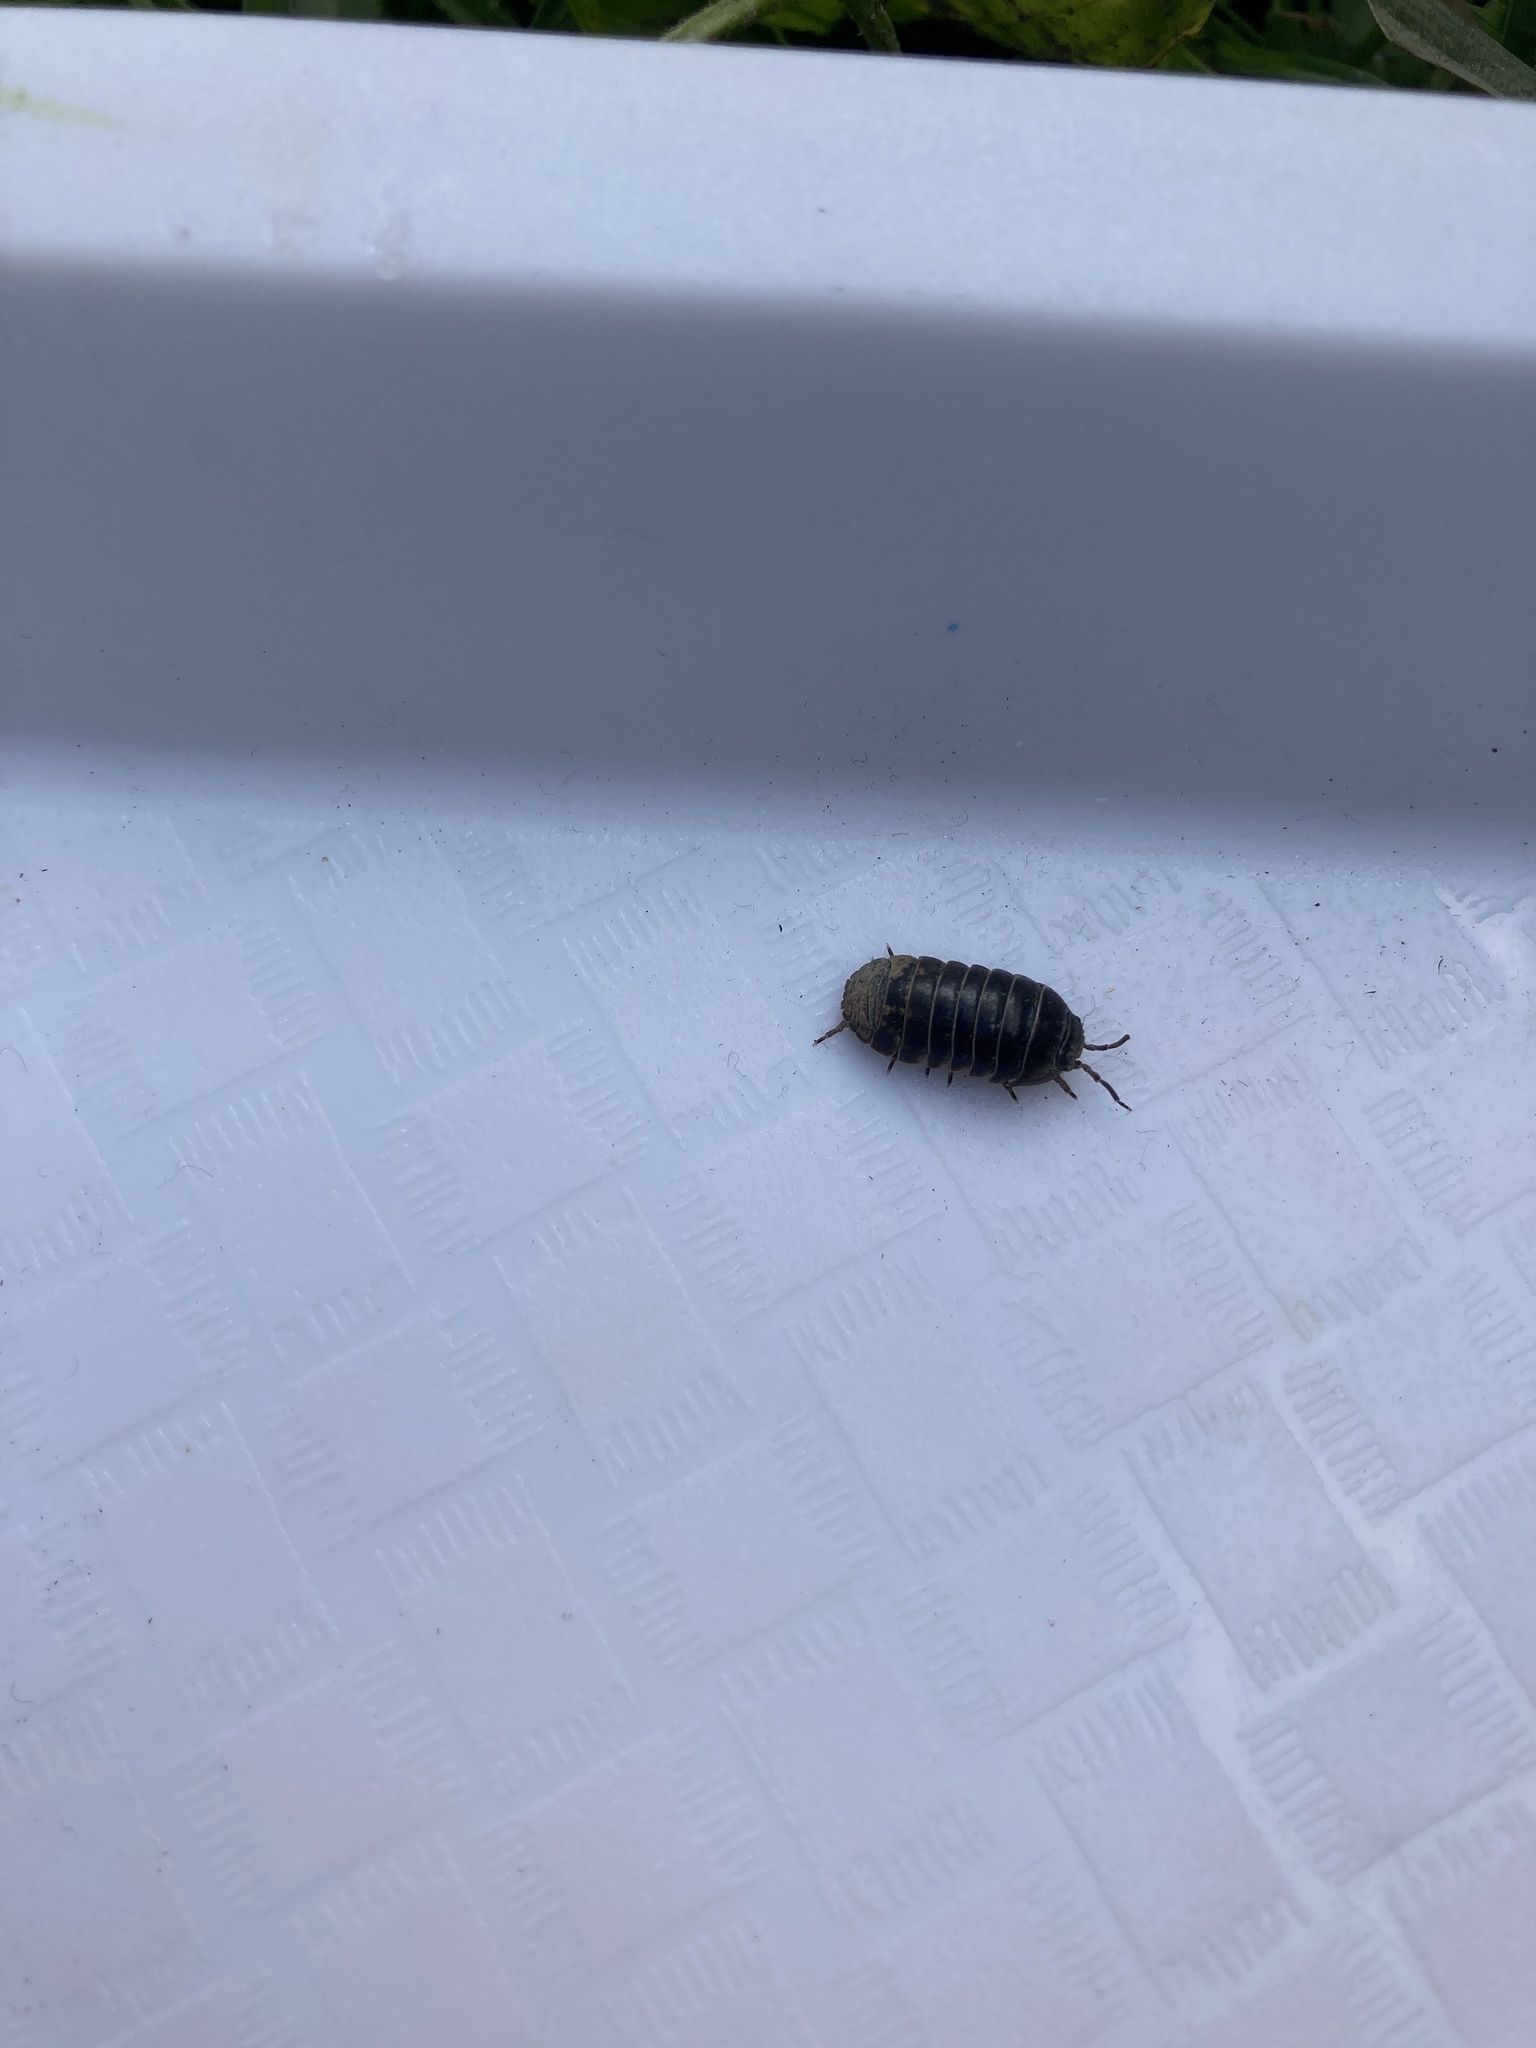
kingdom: Animalia
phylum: Arthropoda
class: Malacostraca
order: Isopoda
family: Armadillidiidae
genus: Armadillidium
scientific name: Armadillidium vulgare
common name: Common pill woodlouse
